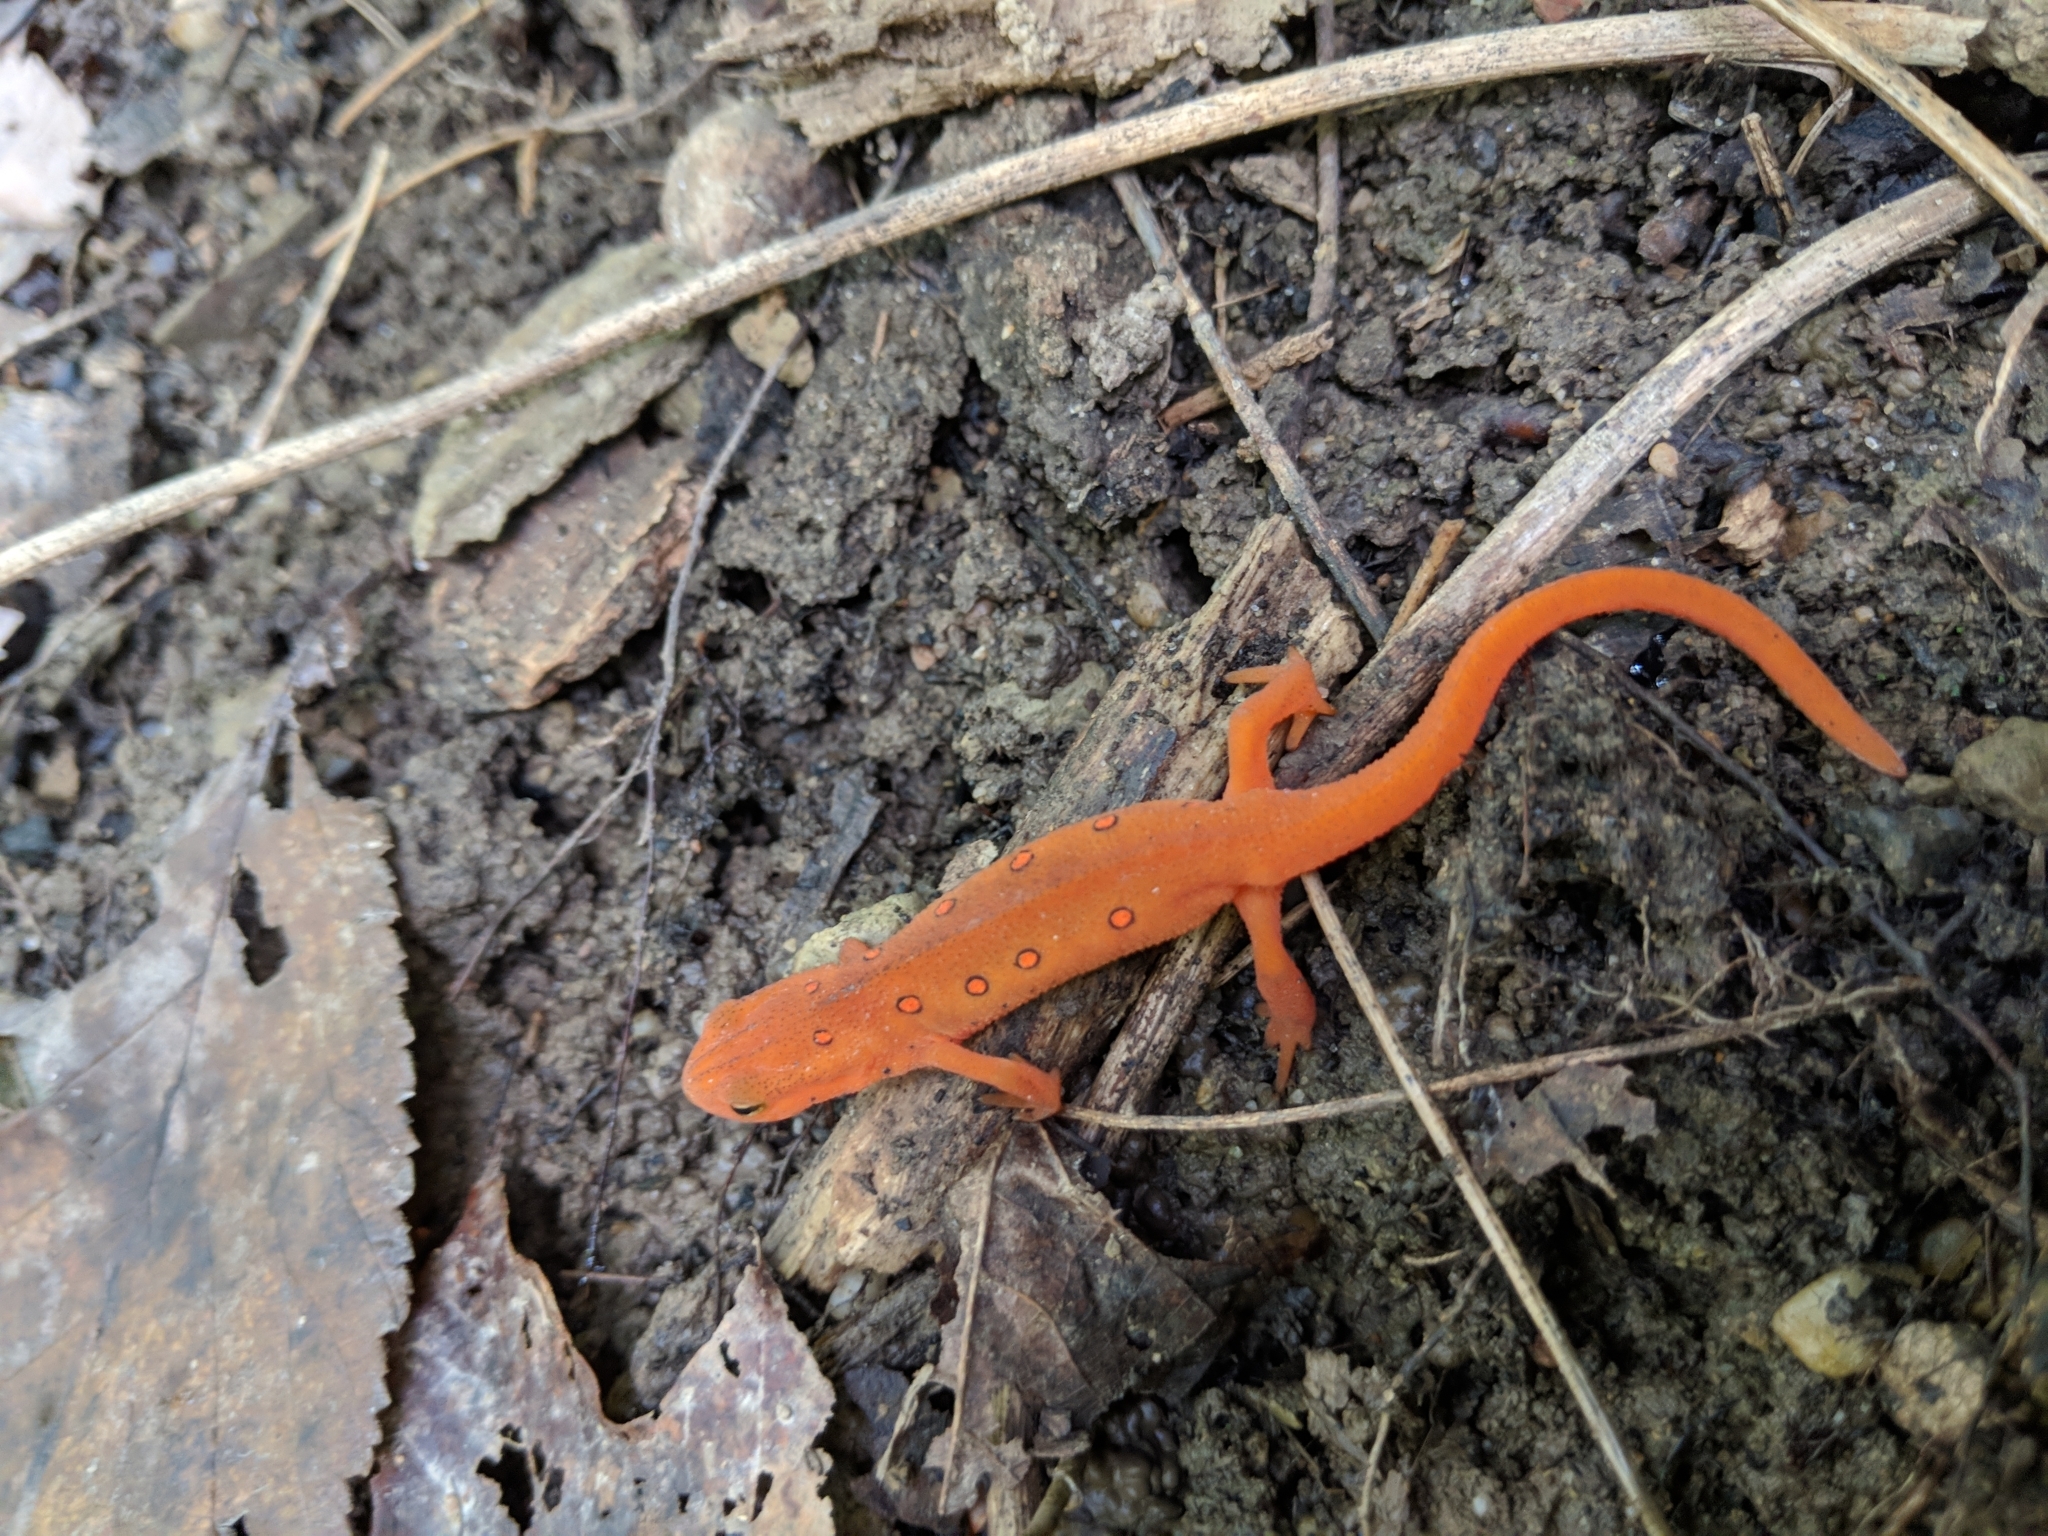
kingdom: Animalia
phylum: Chordata
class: Amphibia
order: Caudata
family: Salamandridae
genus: Notophthalmus
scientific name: Notophthalmus viridescens
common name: Eastern newt
